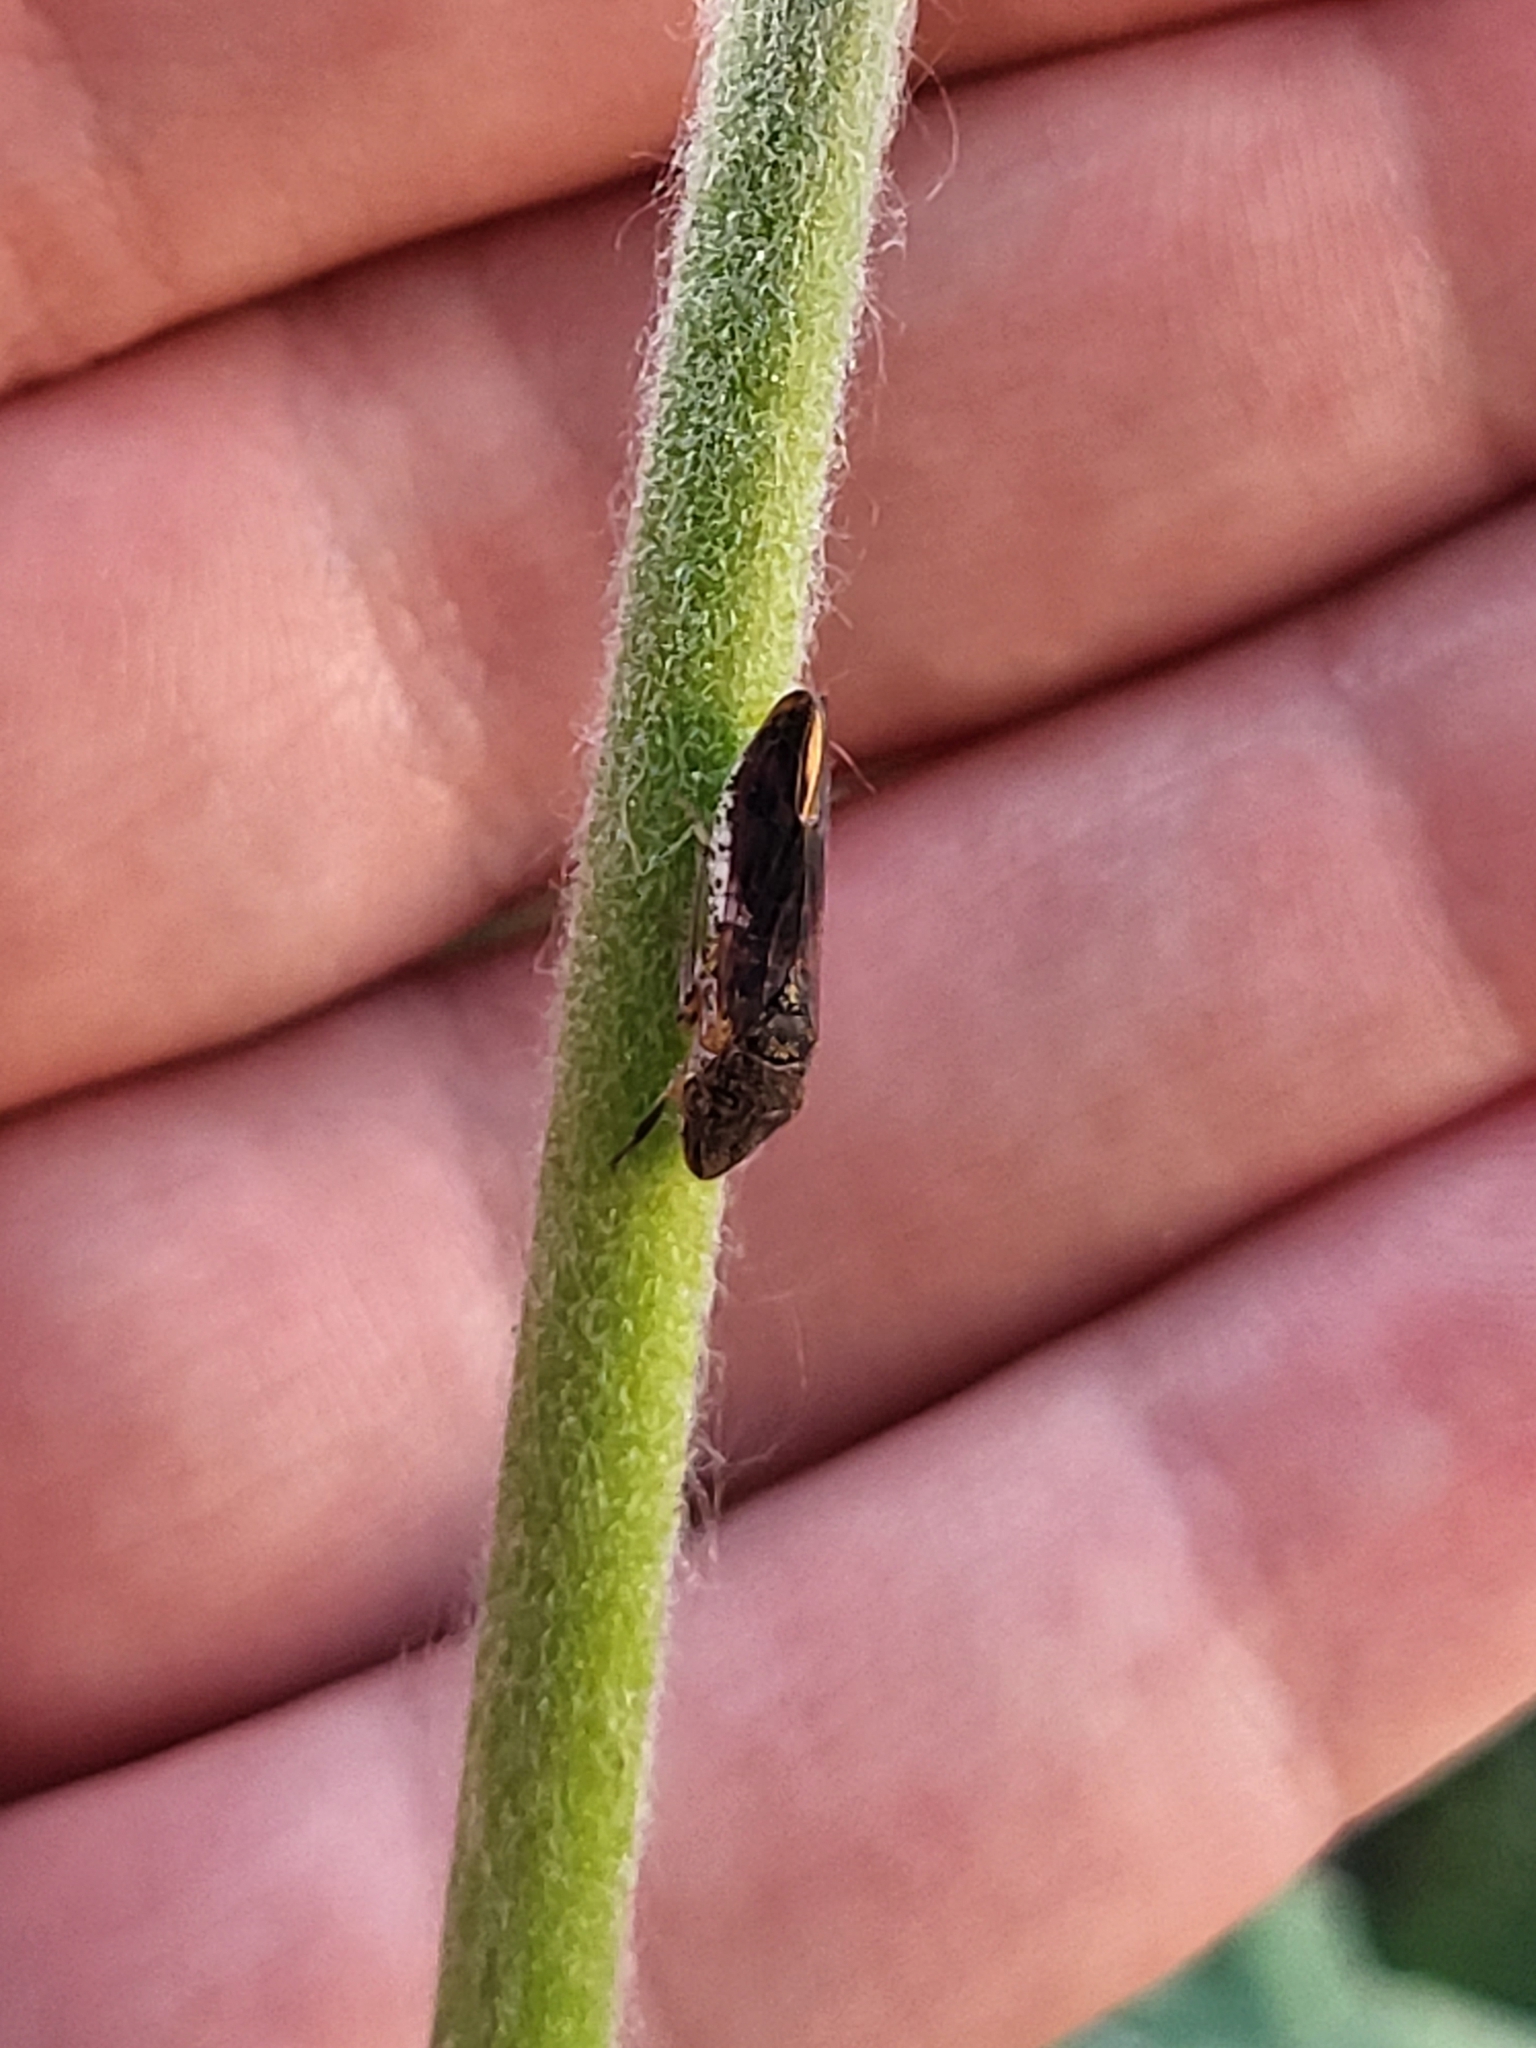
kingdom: Animalia
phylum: Arthropoda
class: Insecta
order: Hemiptera
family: Cicadellidae
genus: Homalodisca
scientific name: Homalodisca vitripennis
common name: Glassy-winged sharpshooter
